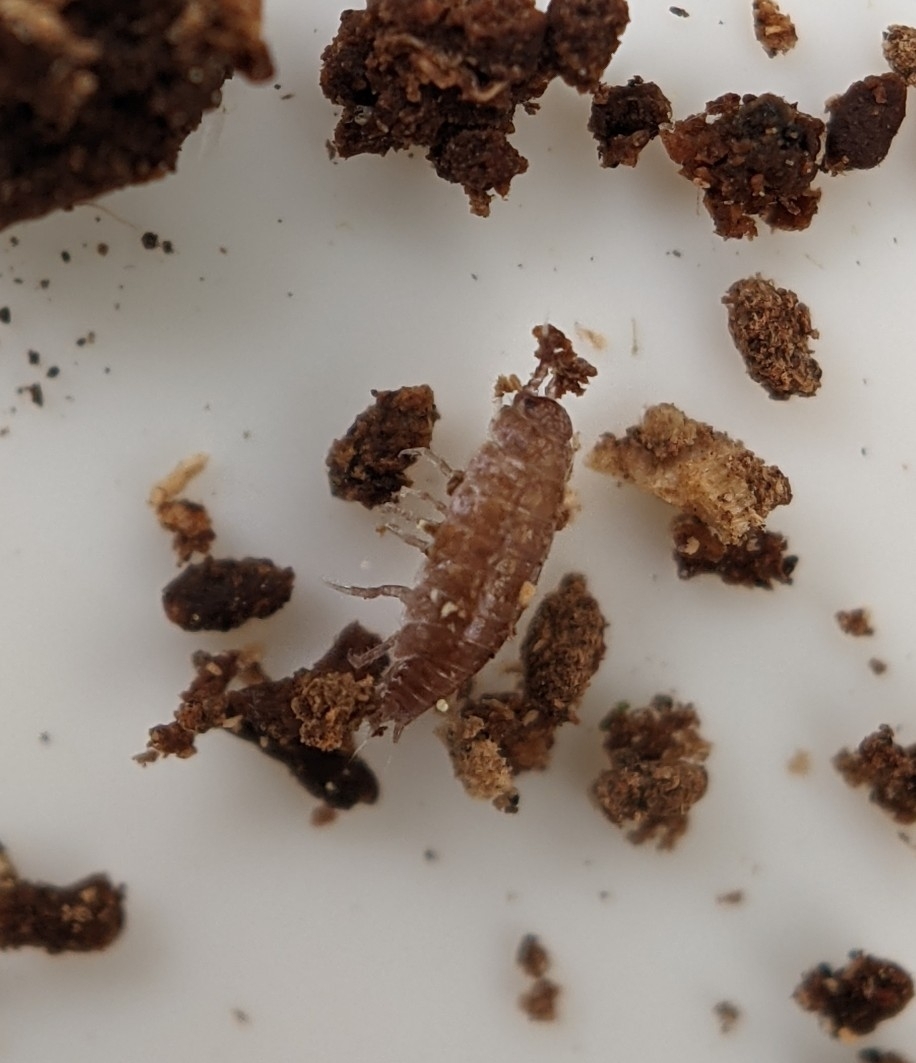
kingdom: Animalia
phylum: Arthropoda
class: Malacostraca
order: Isopoda
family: Trichoniscidae
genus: Trichoniscus
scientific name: Trichoniscus
